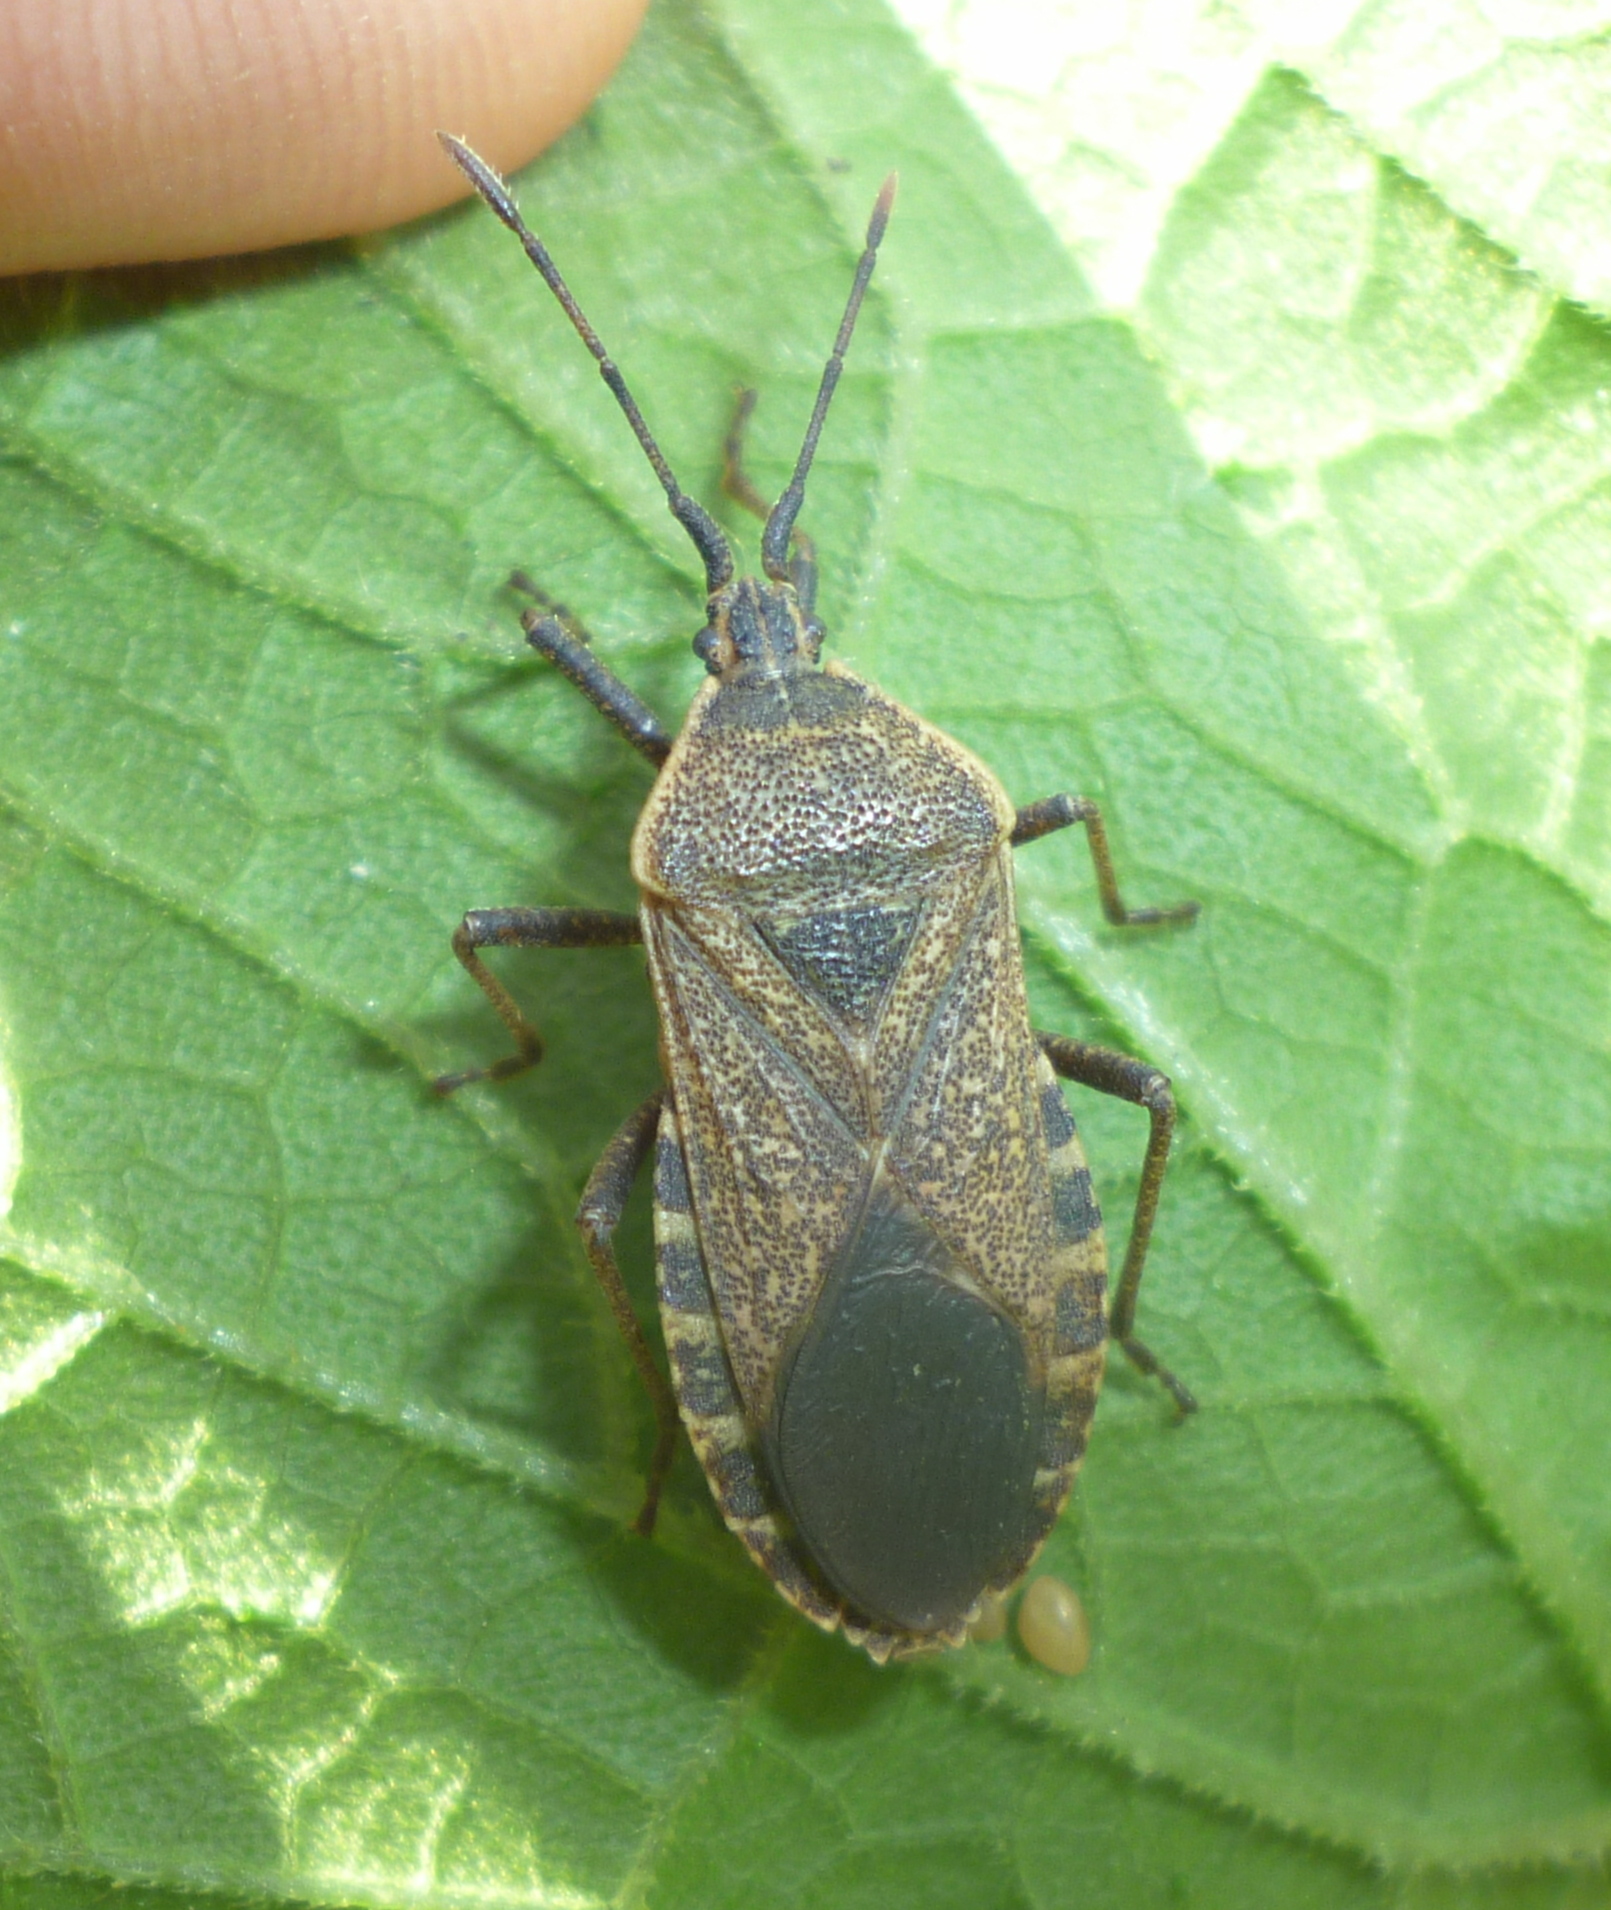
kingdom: Animalia
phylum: Arthropoda
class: Insecta
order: Hemiptera
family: Coreidae
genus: Anasa
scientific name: Anasa tristis
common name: Squash bug
